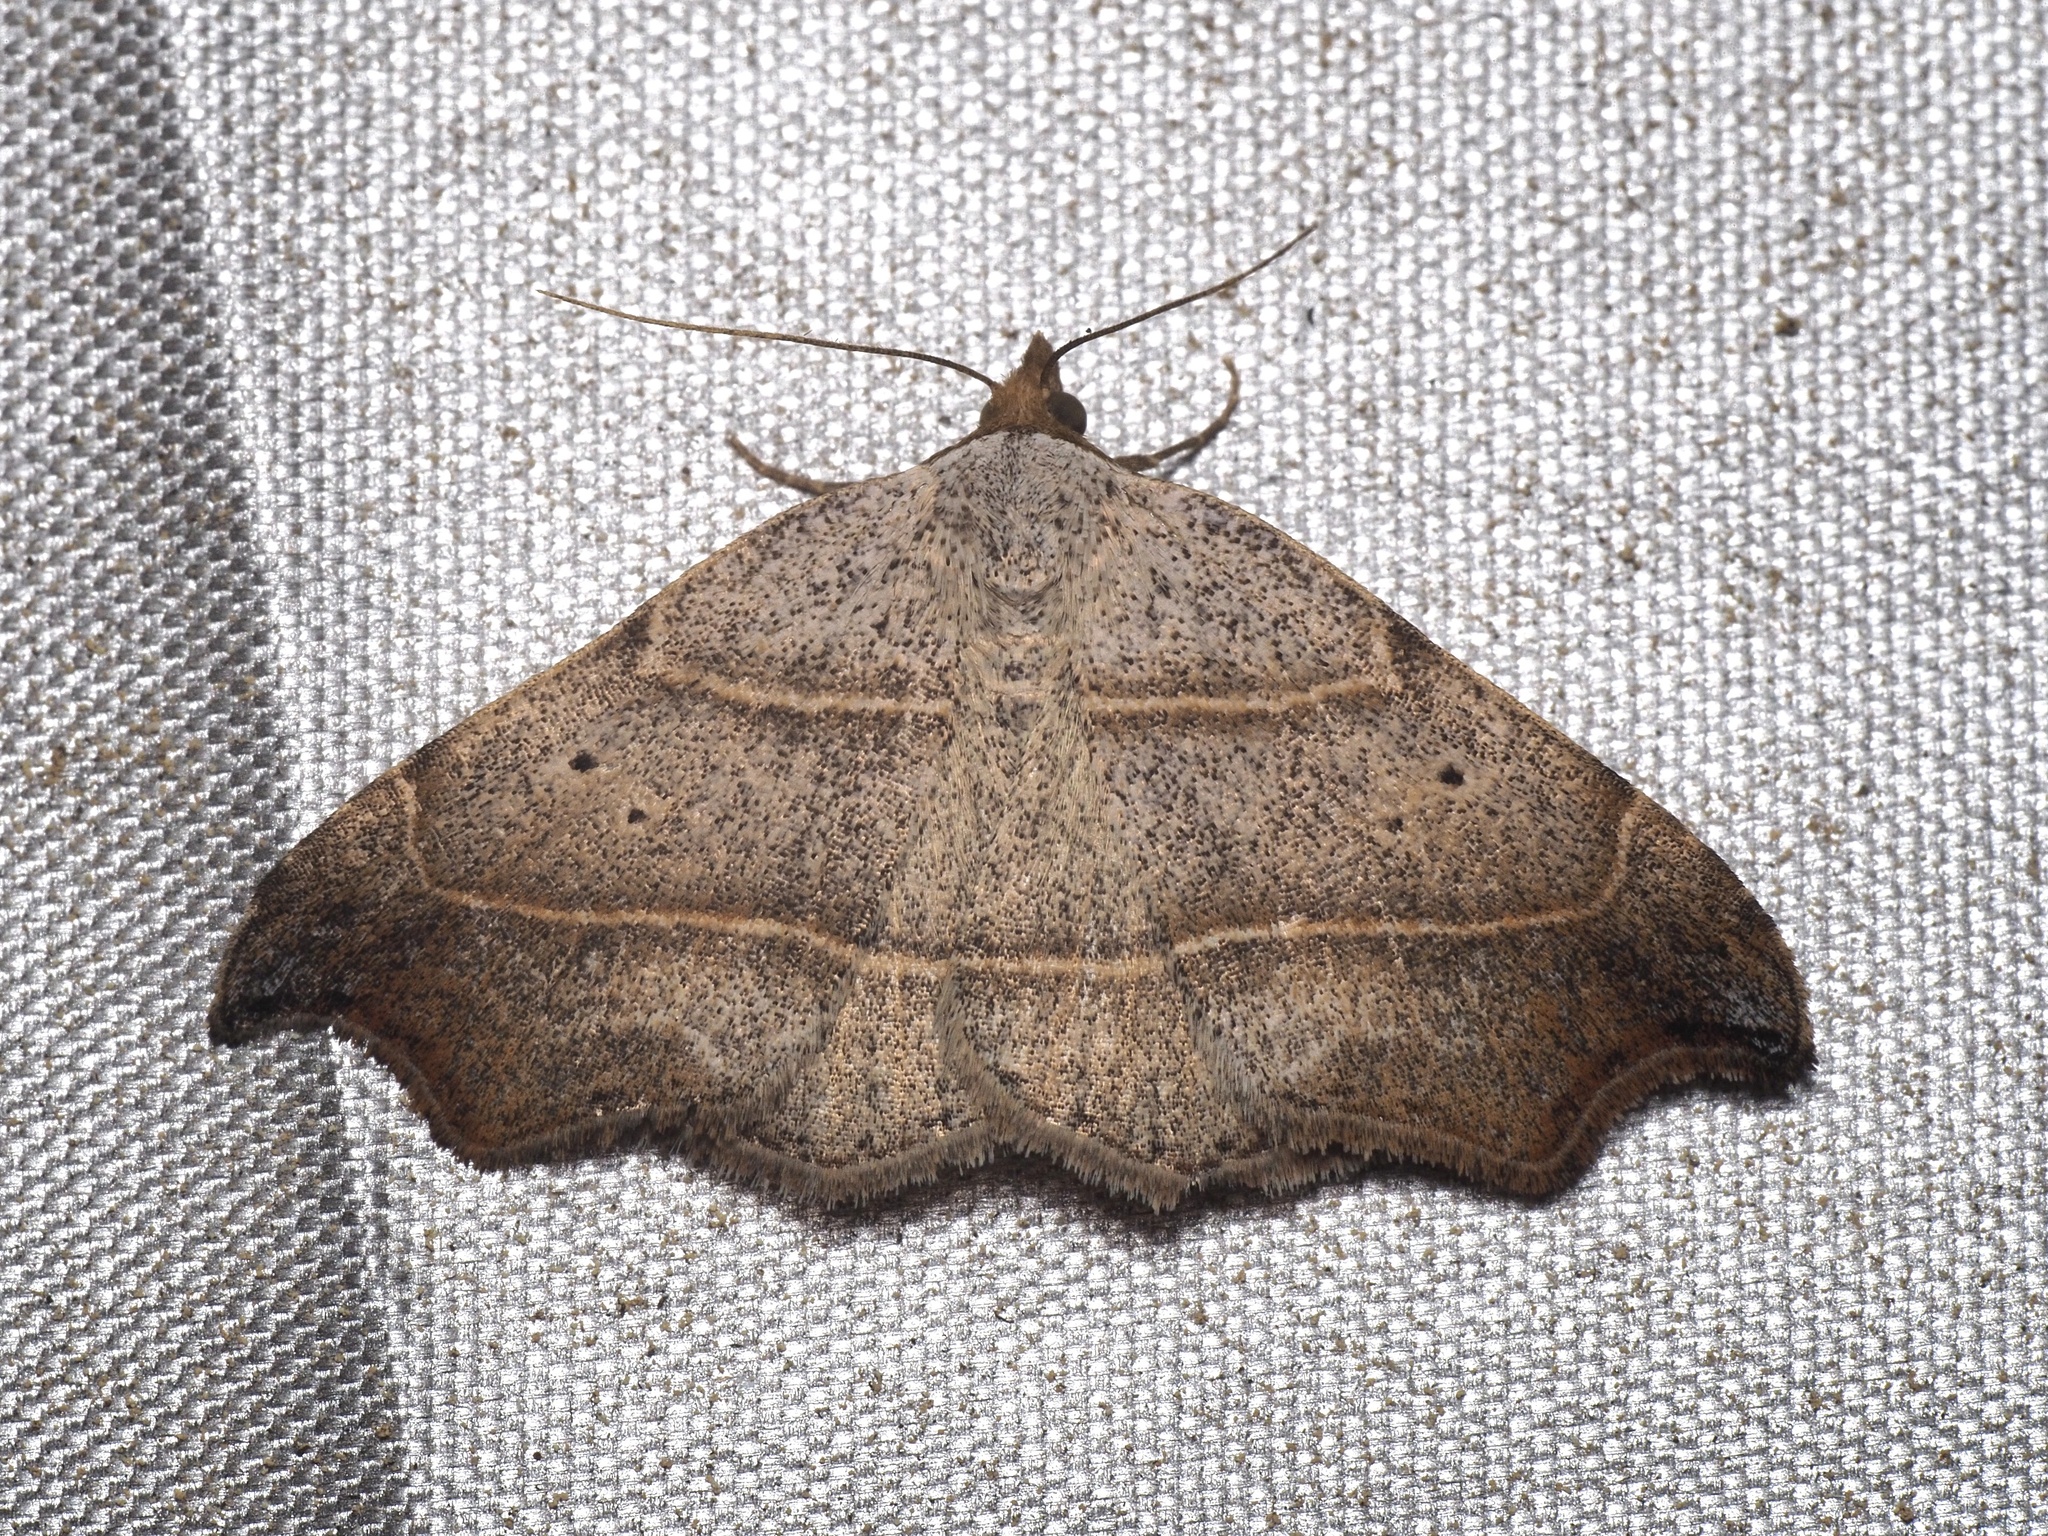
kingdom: Animalia
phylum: Arthropoda
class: Insecta
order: Lepidoptera
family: Erebidae
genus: Laspeyria
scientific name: Laspeyria flexula
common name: Beautiful hook-tip
